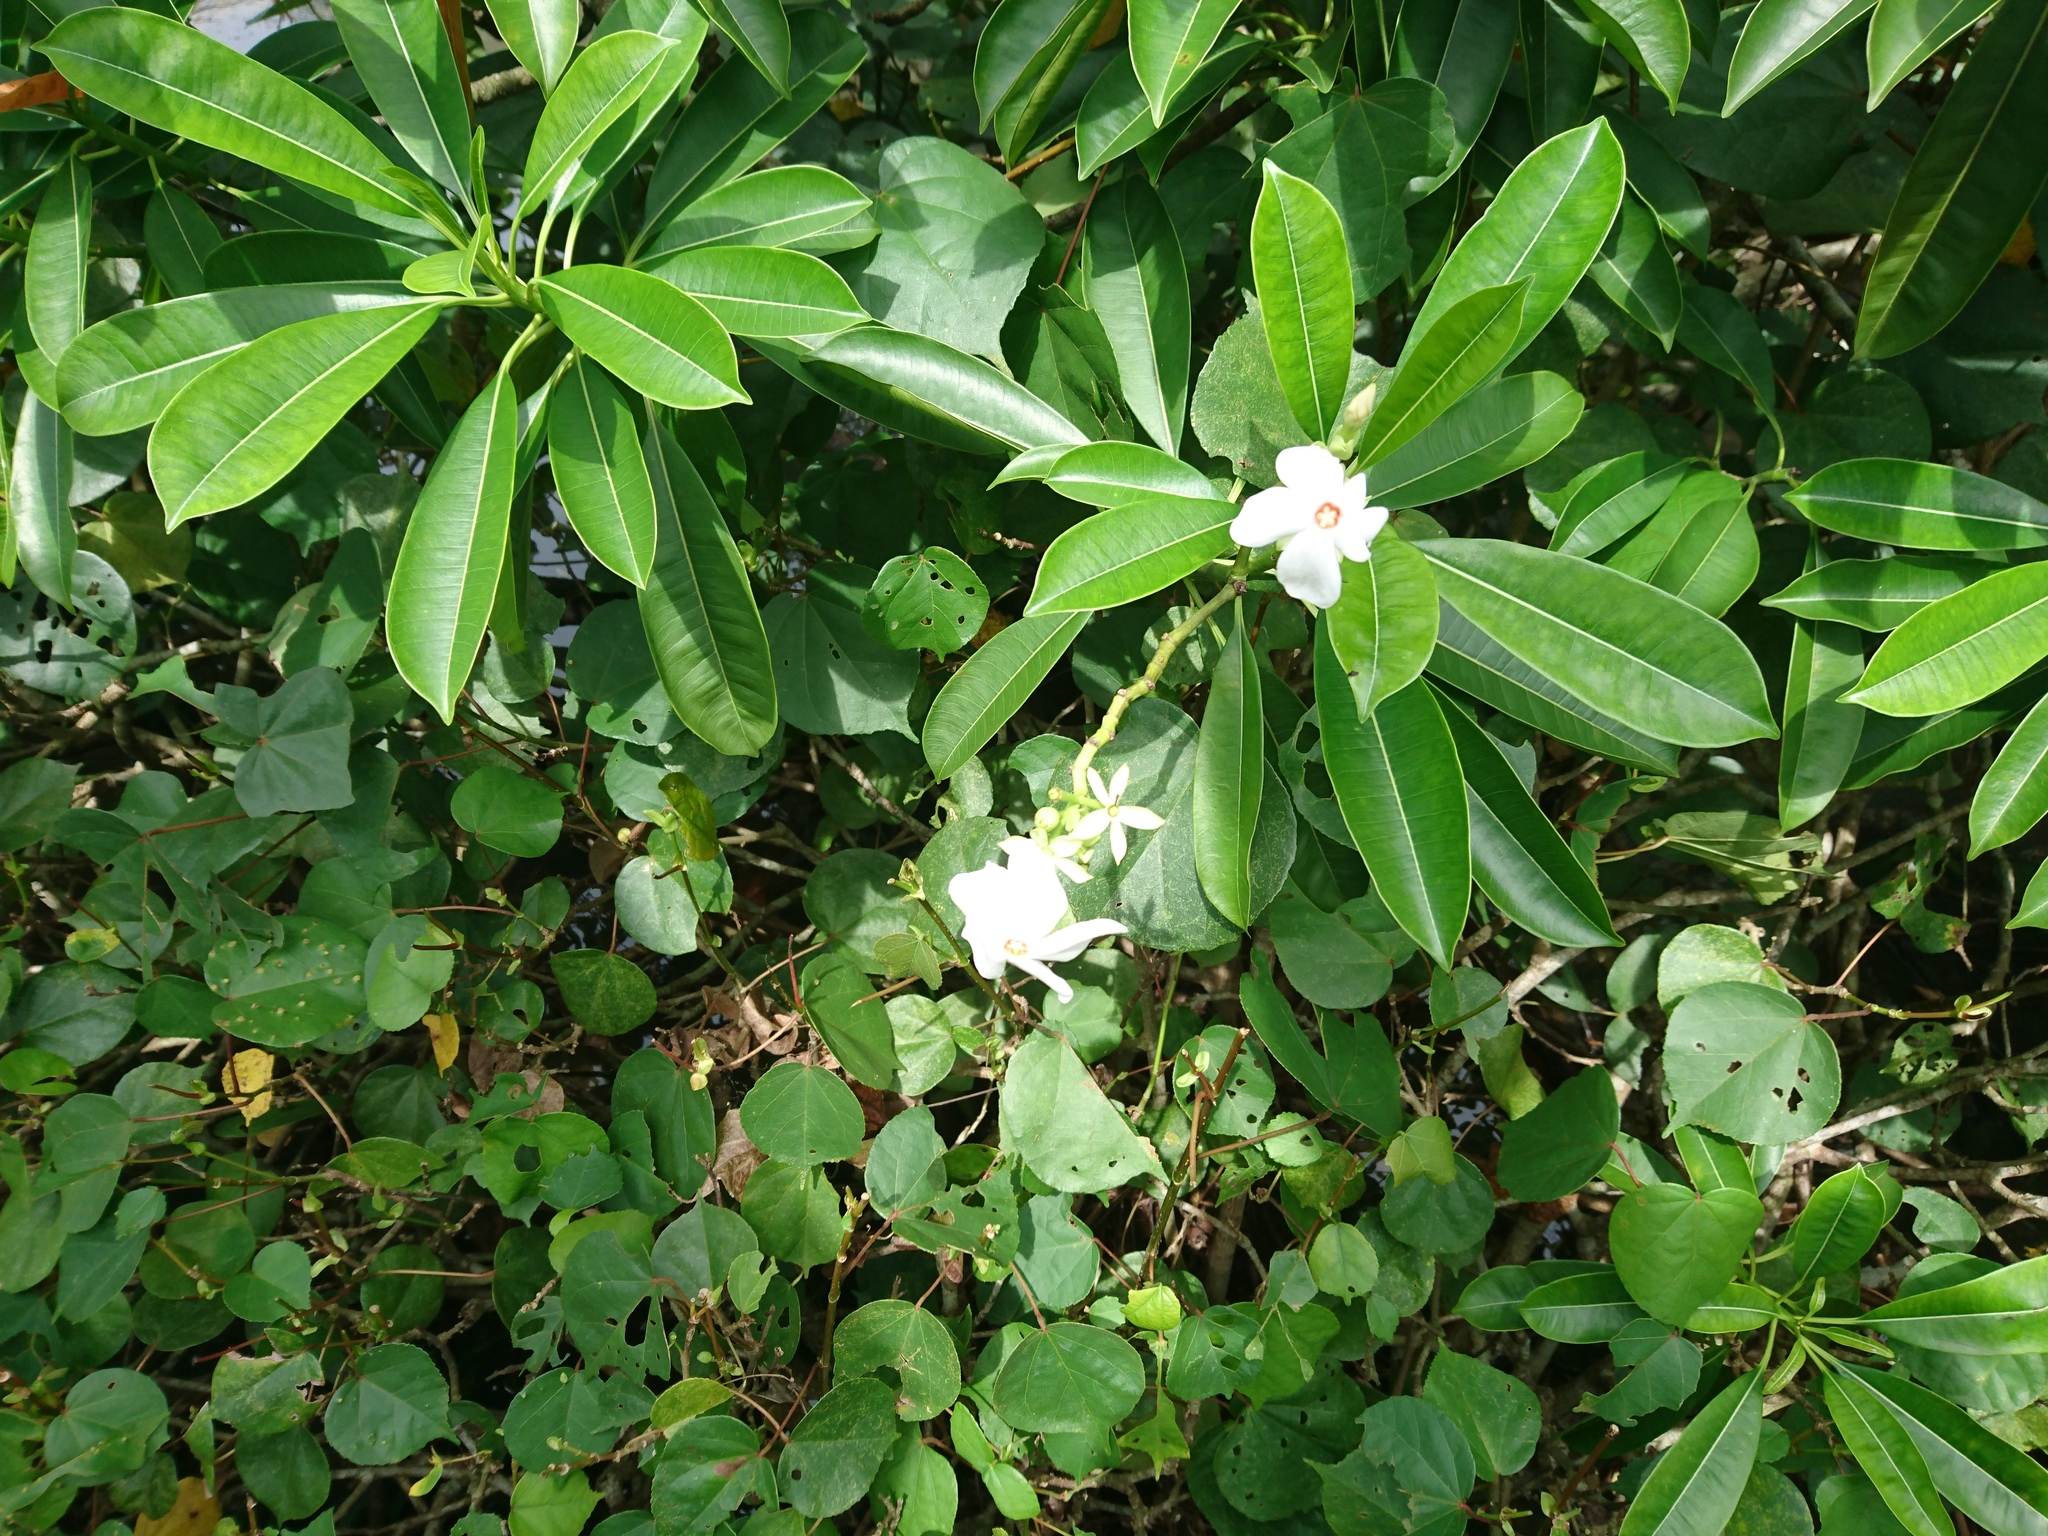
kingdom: Plantae
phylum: Tracheophyta
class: Magnoliopsida
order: Gentianales
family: Apocynaceae
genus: Cerbera
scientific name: Cerbera manghas
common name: Reva
